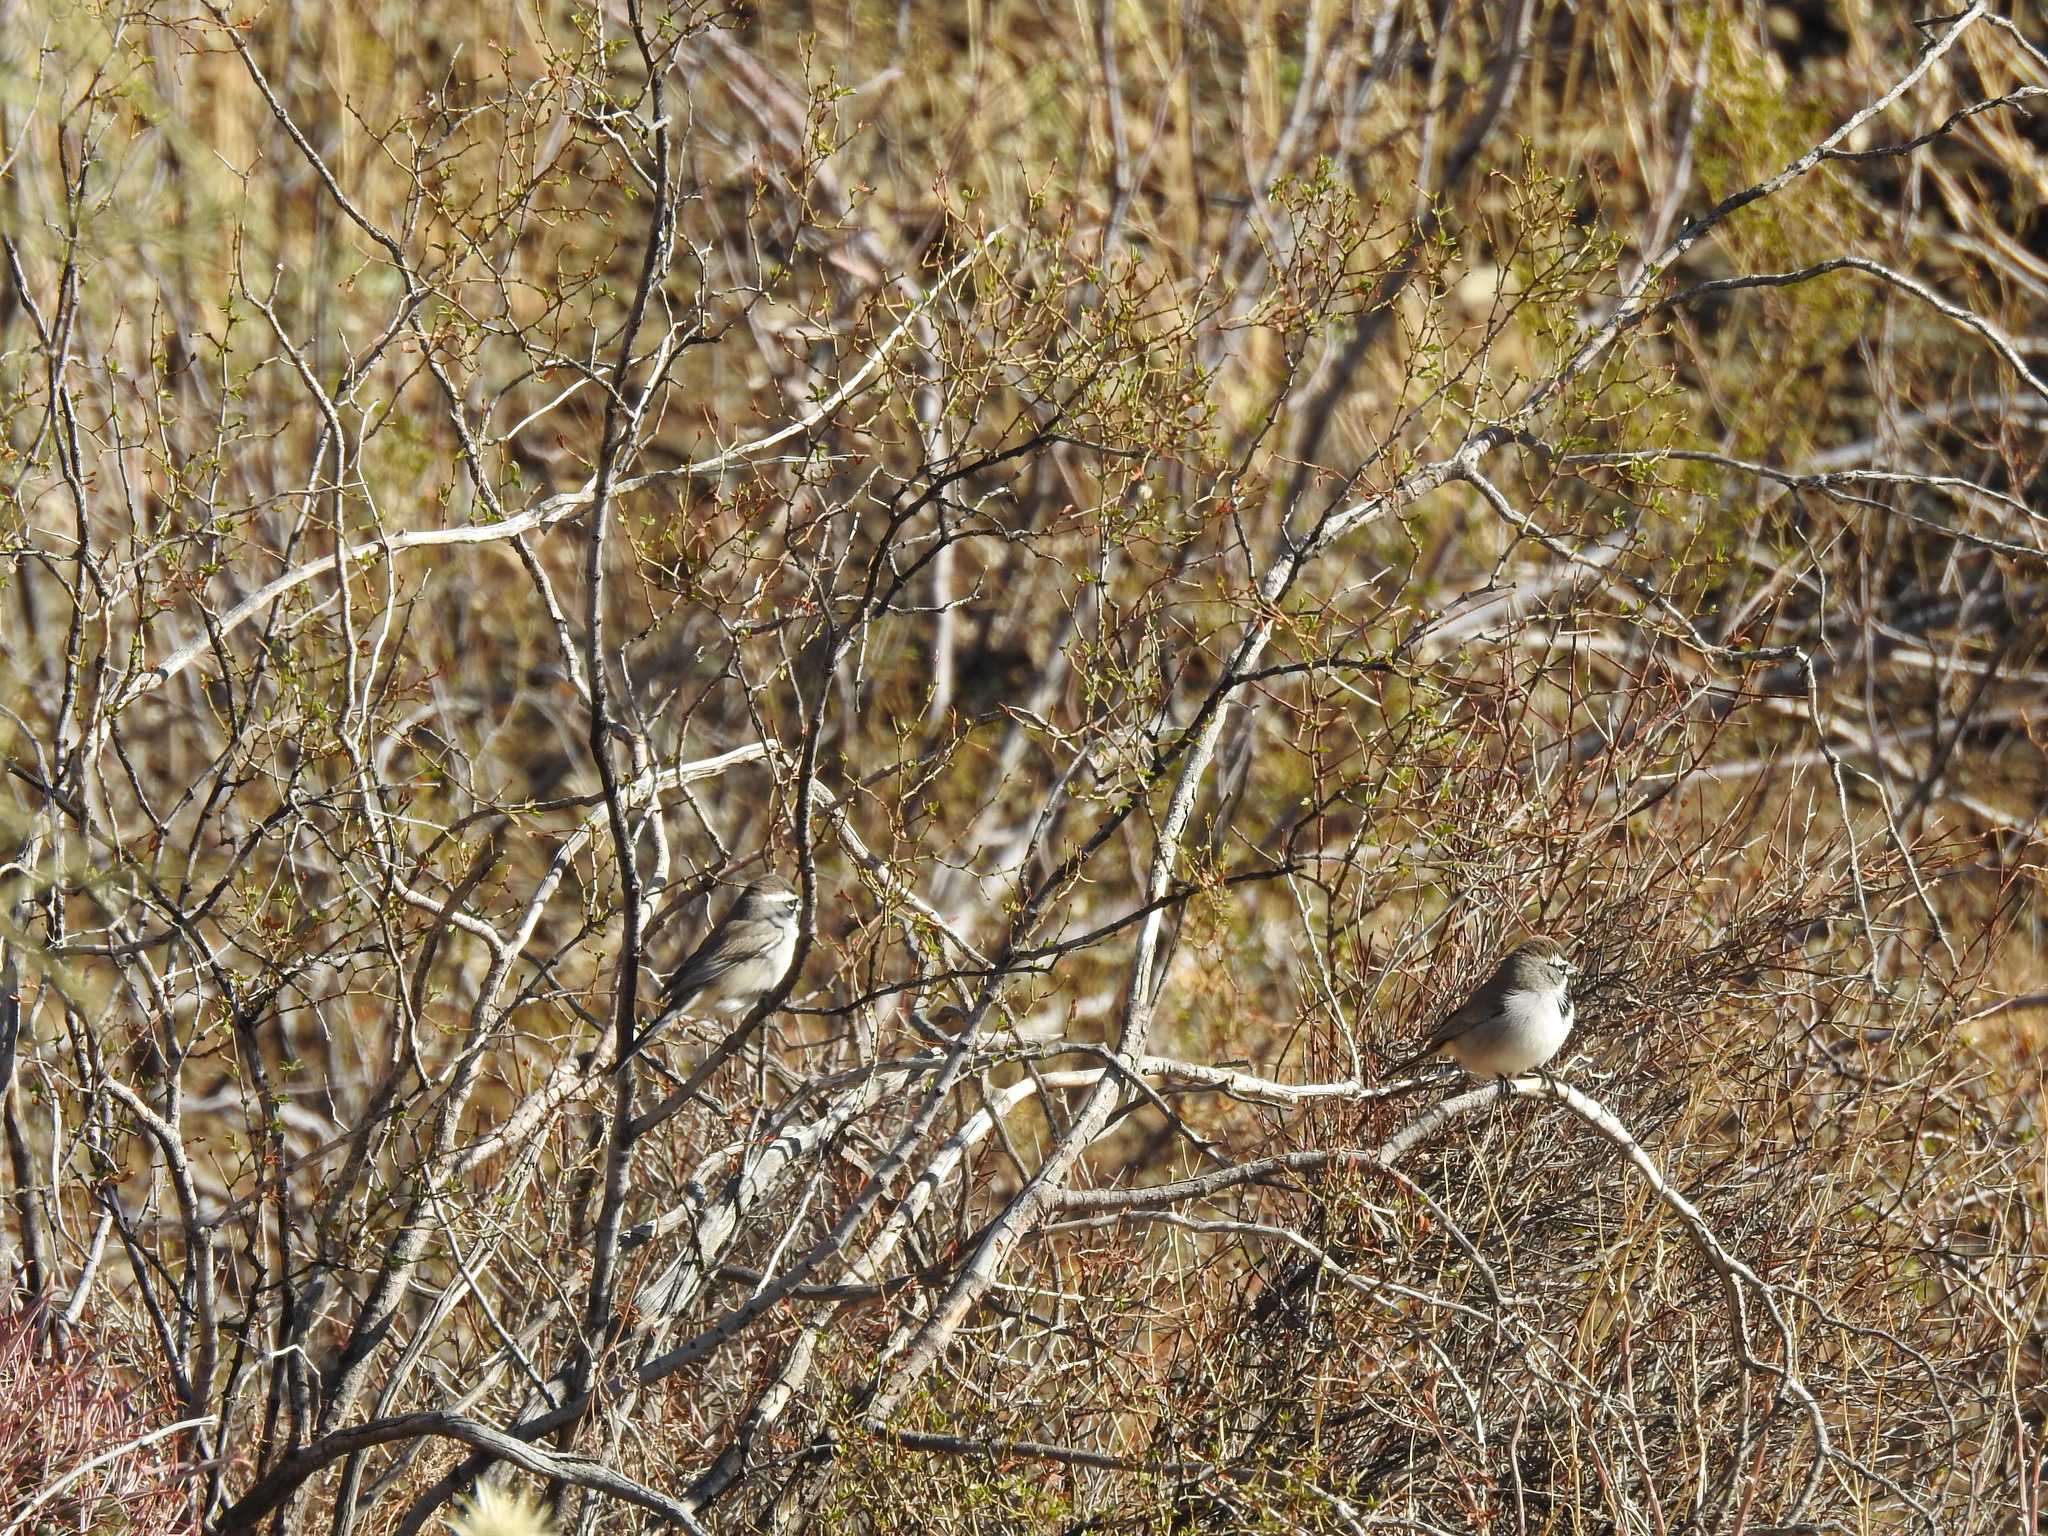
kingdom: Animalia
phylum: Chordata
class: Aves
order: Passeriformes
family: Passerellidae
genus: Amphispiza
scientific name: Amphispiza bilineata
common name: Black-throated sparrow
